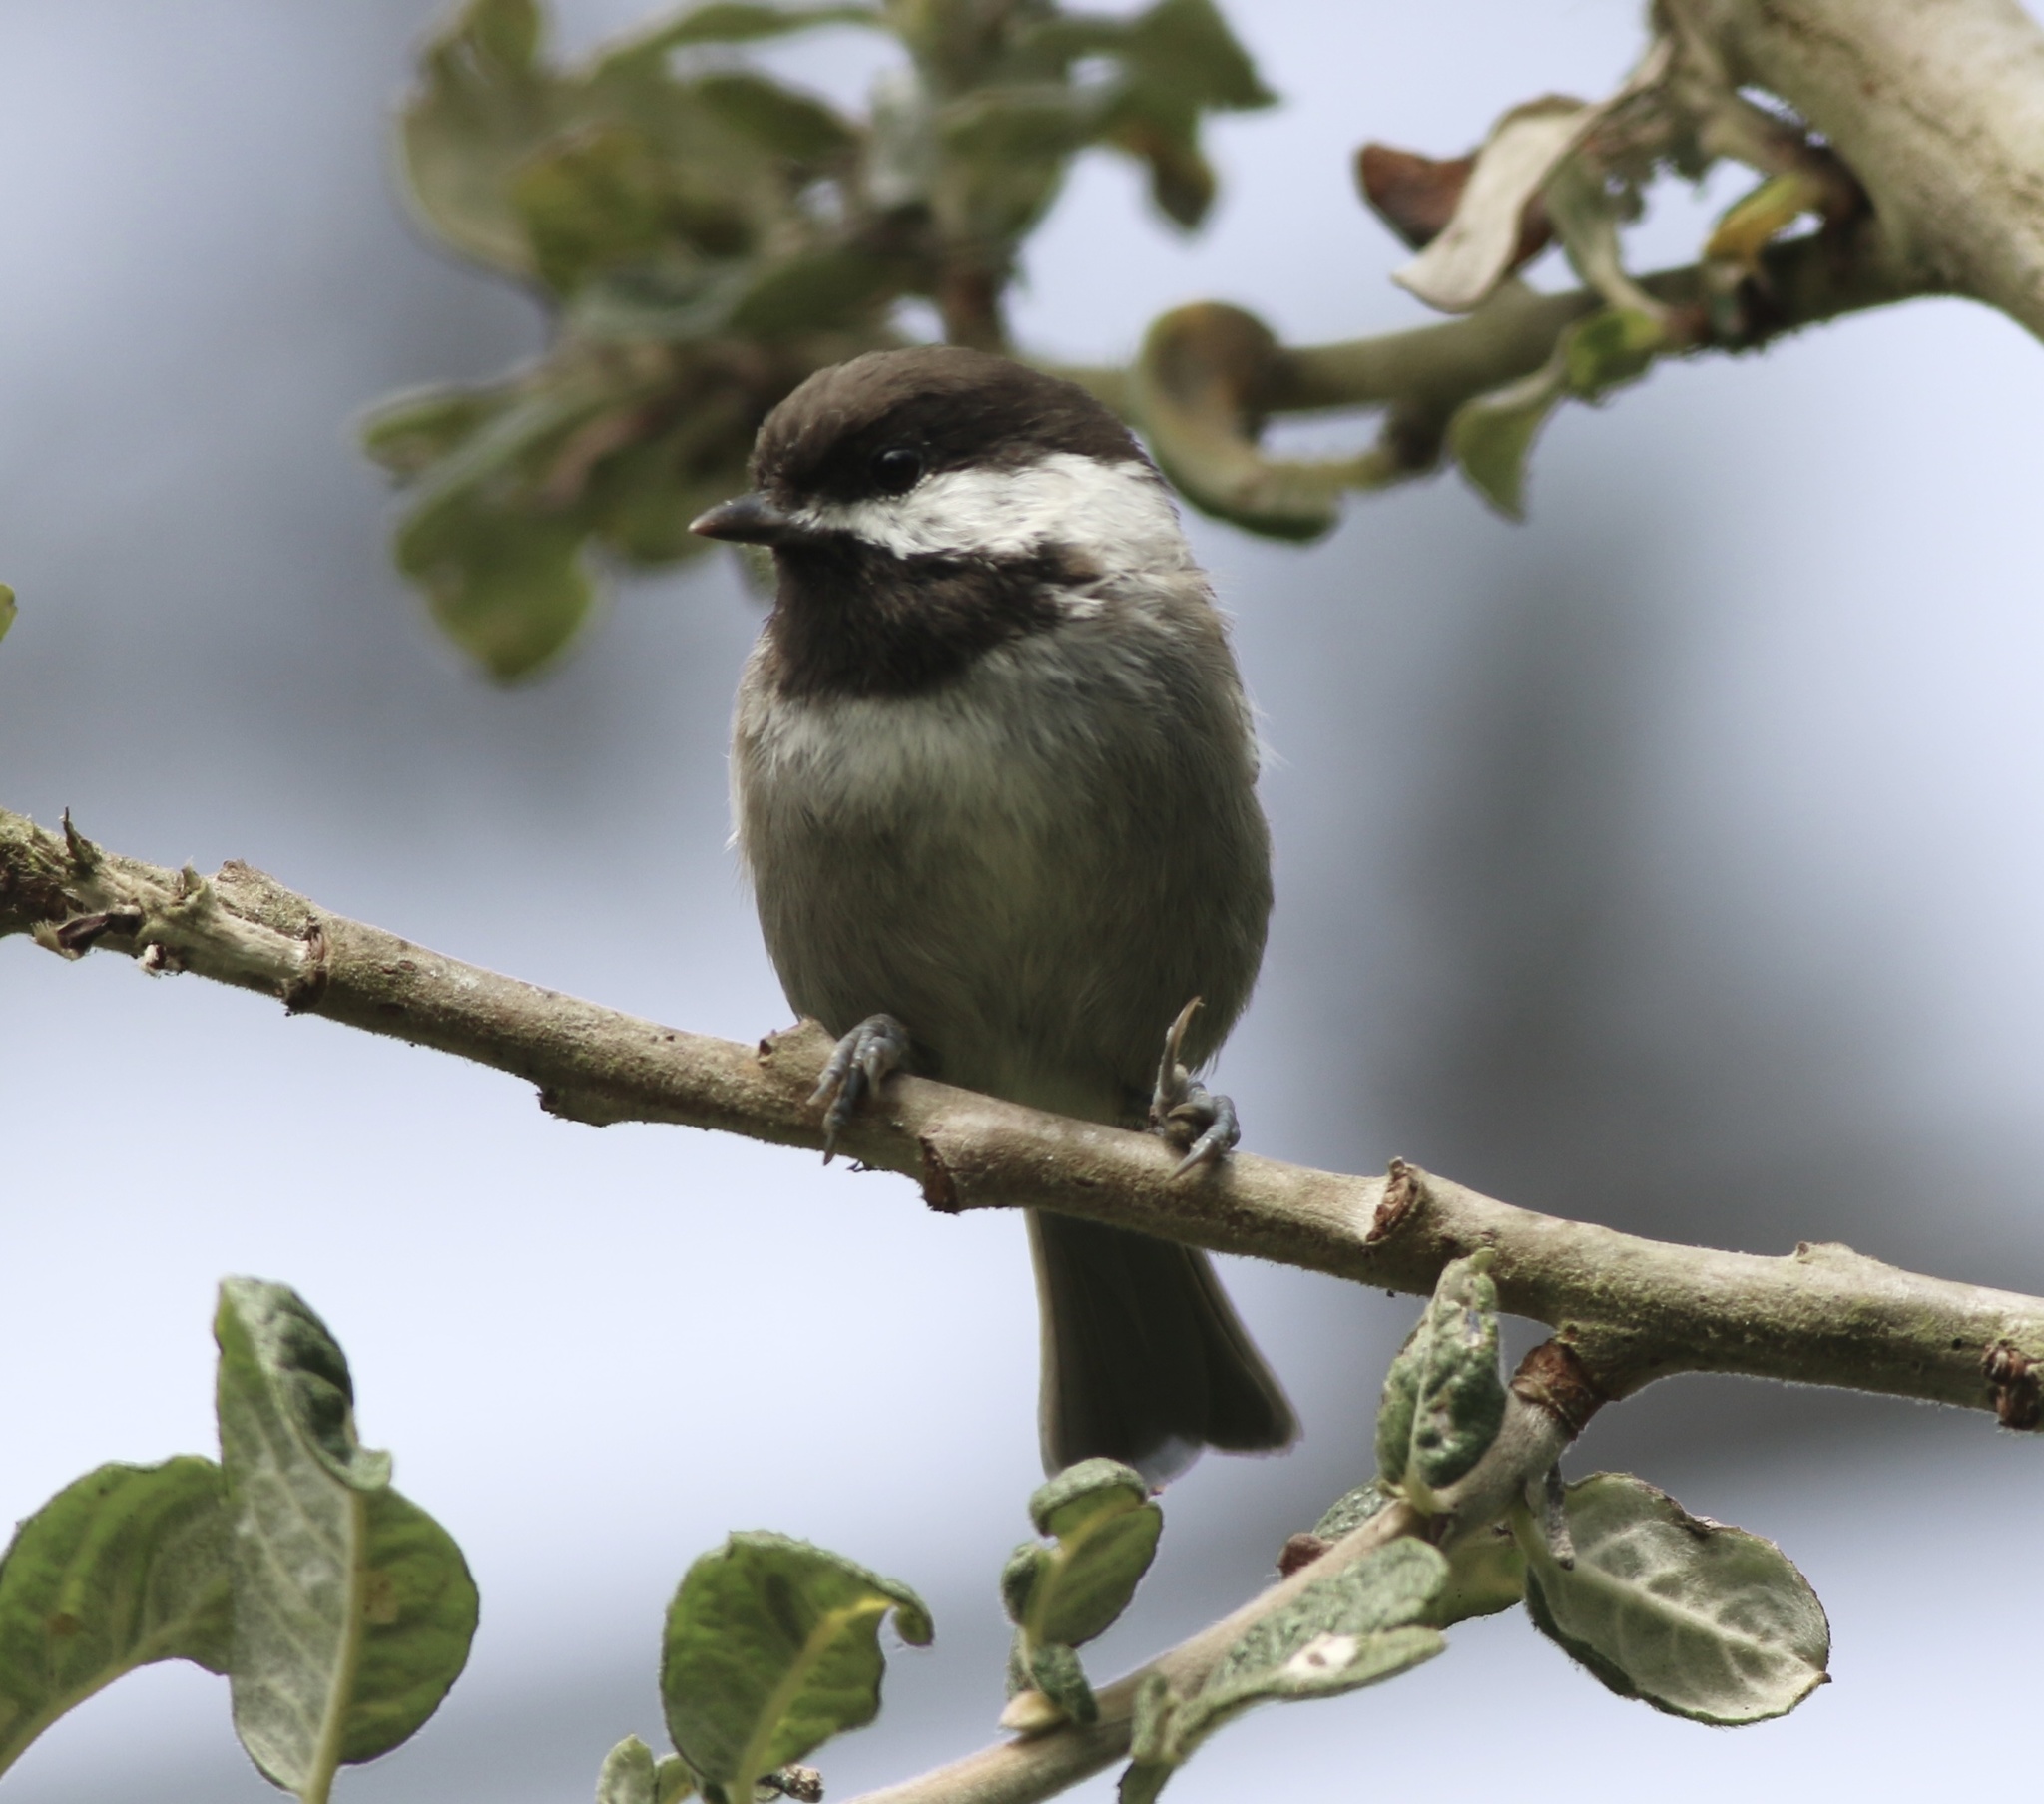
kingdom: Animalia
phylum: Chordata
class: Aves
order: Passeriformes
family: Paridae
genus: Poecile
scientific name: Poecile rufescens
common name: Chestnut-backed chickadee
